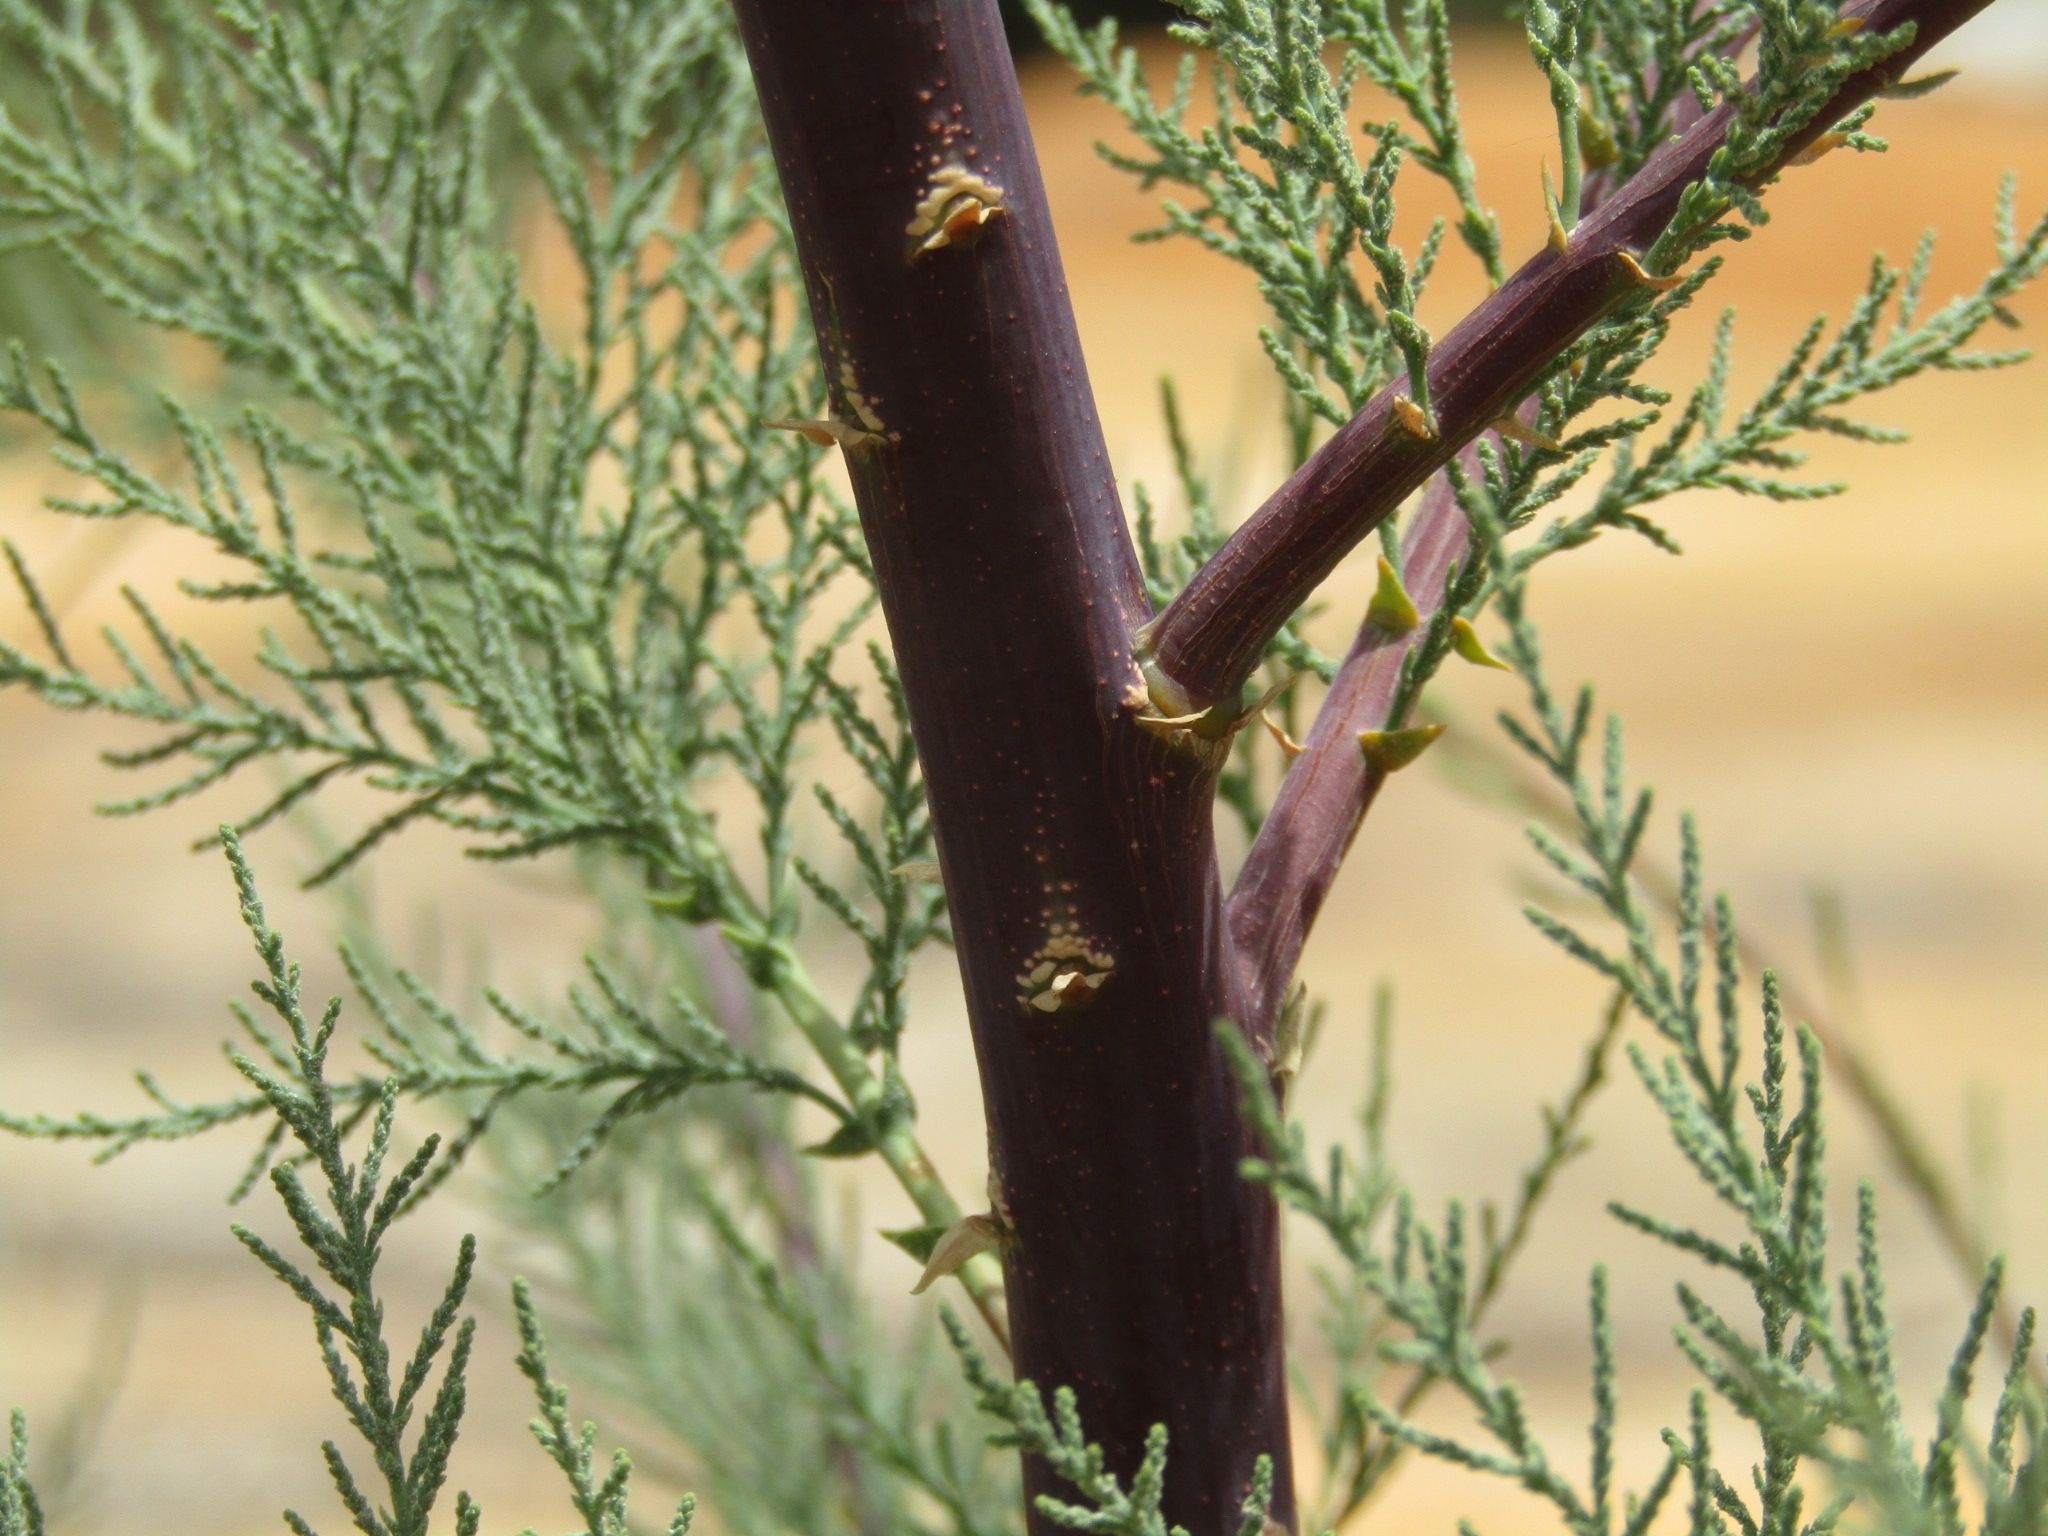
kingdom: Plantae
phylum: Tracheophyta
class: Magnoliopsida
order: Caryophyllales
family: Tamaricaceae
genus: Tamarix
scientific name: Tamarix ramosissima
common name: Pink tamarisk
